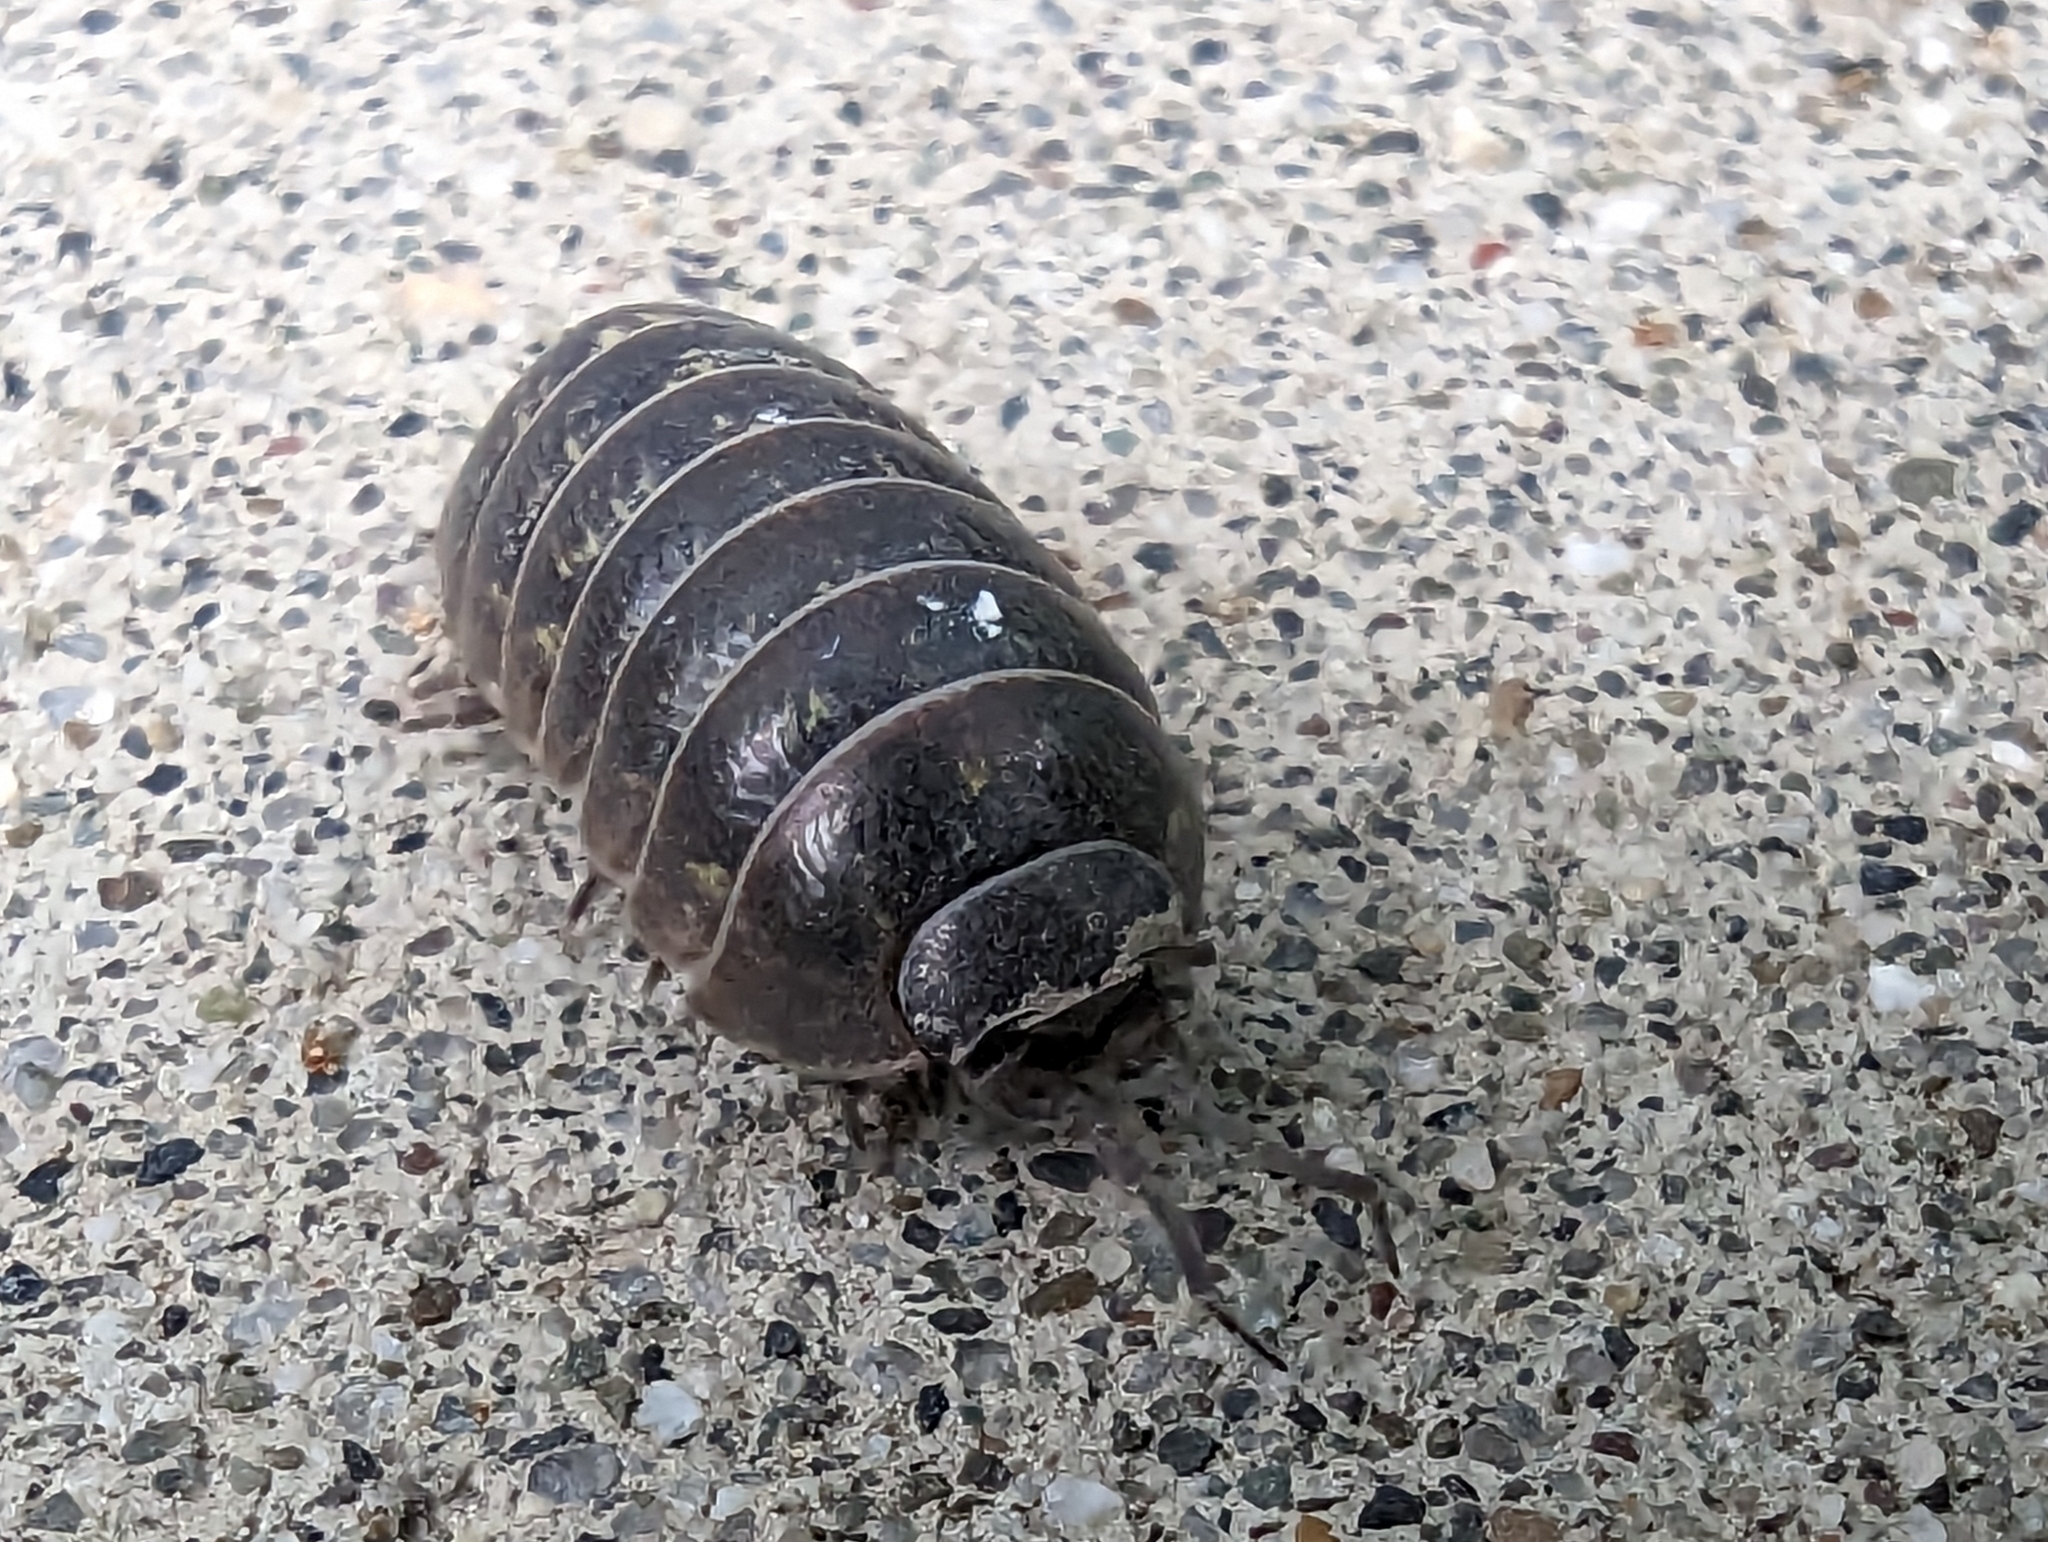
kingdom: Animalia
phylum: Arthropoda
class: Malacostraca
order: Isopoda
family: Armadillidiidae
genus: Armadillidium
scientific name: Armadillidium vulgare
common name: Common pill woodlouse
